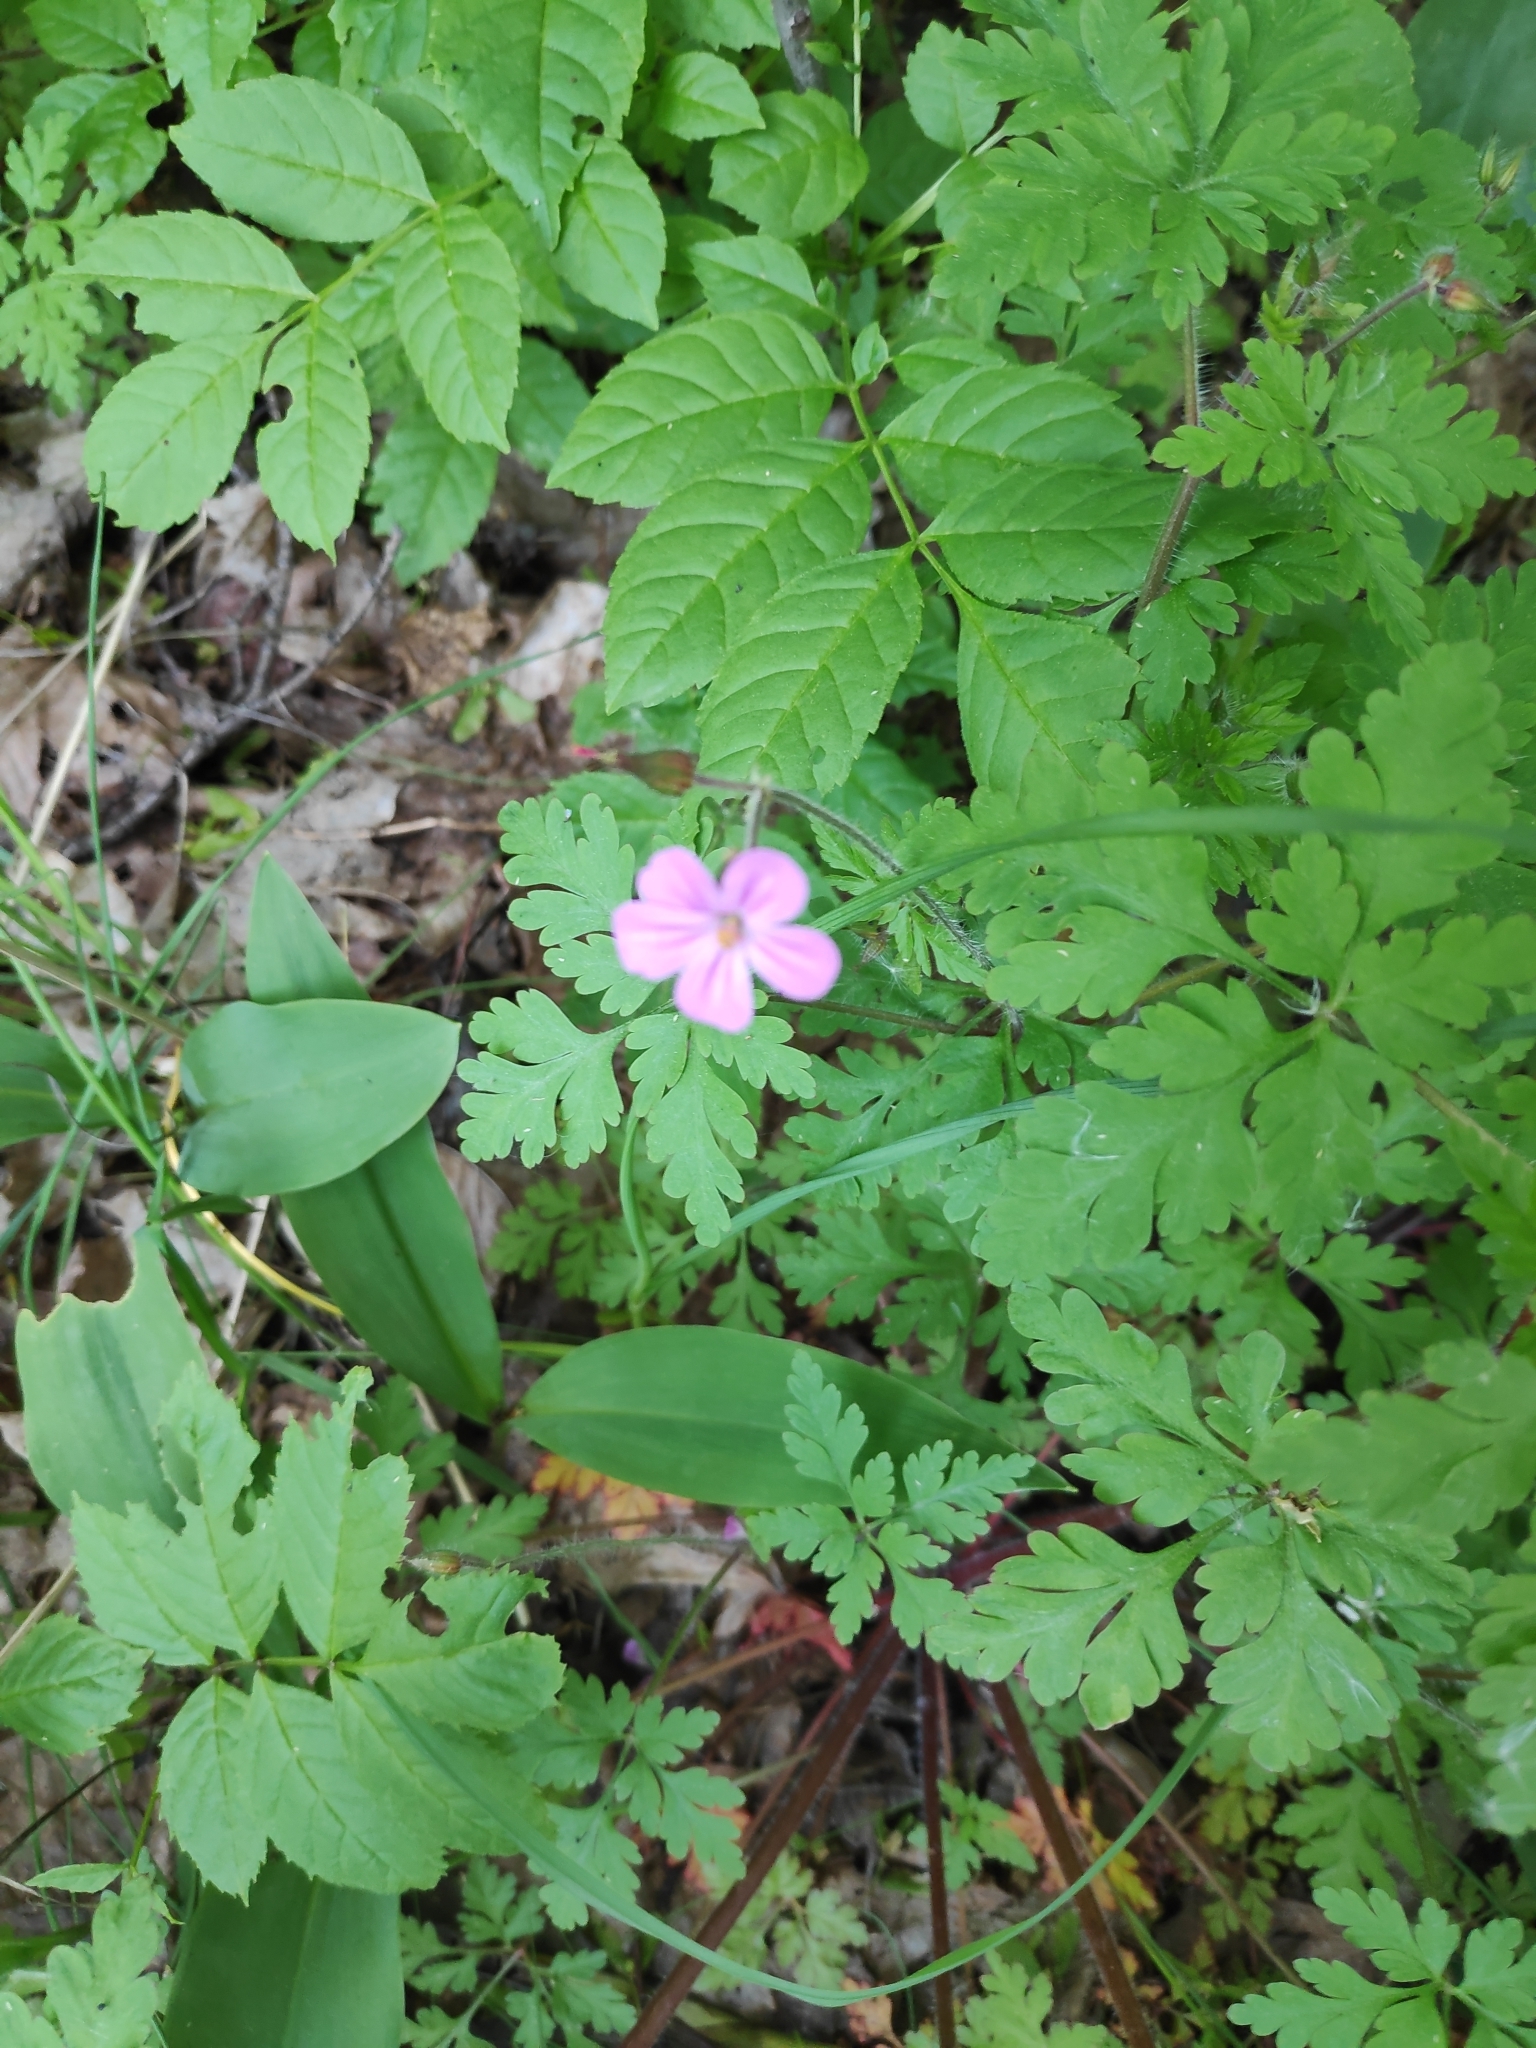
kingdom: Plantae
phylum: Tracheophyta
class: Magnoliopsida
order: Geraniales
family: Geraniaceae
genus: Geranium
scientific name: Geranium robertianum
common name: Herb-robert
